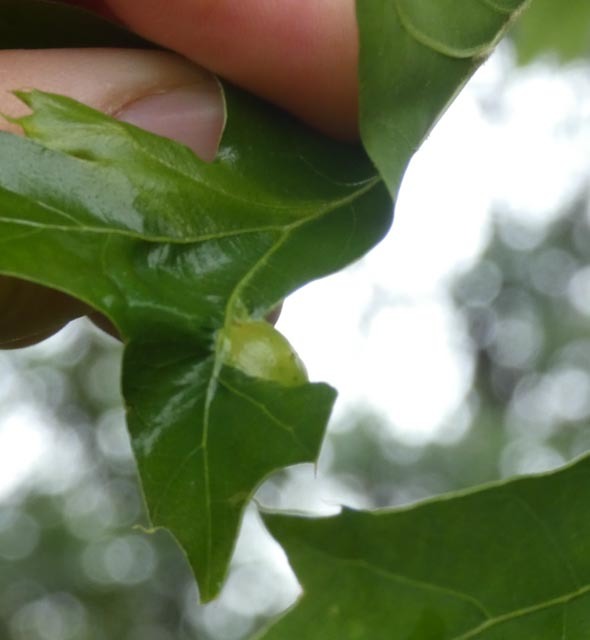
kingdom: Animalia
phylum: Arthropoda
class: Insecta
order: Hymenoptera
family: Cynipidae
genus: Amphibolips
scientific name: Amphibolips
